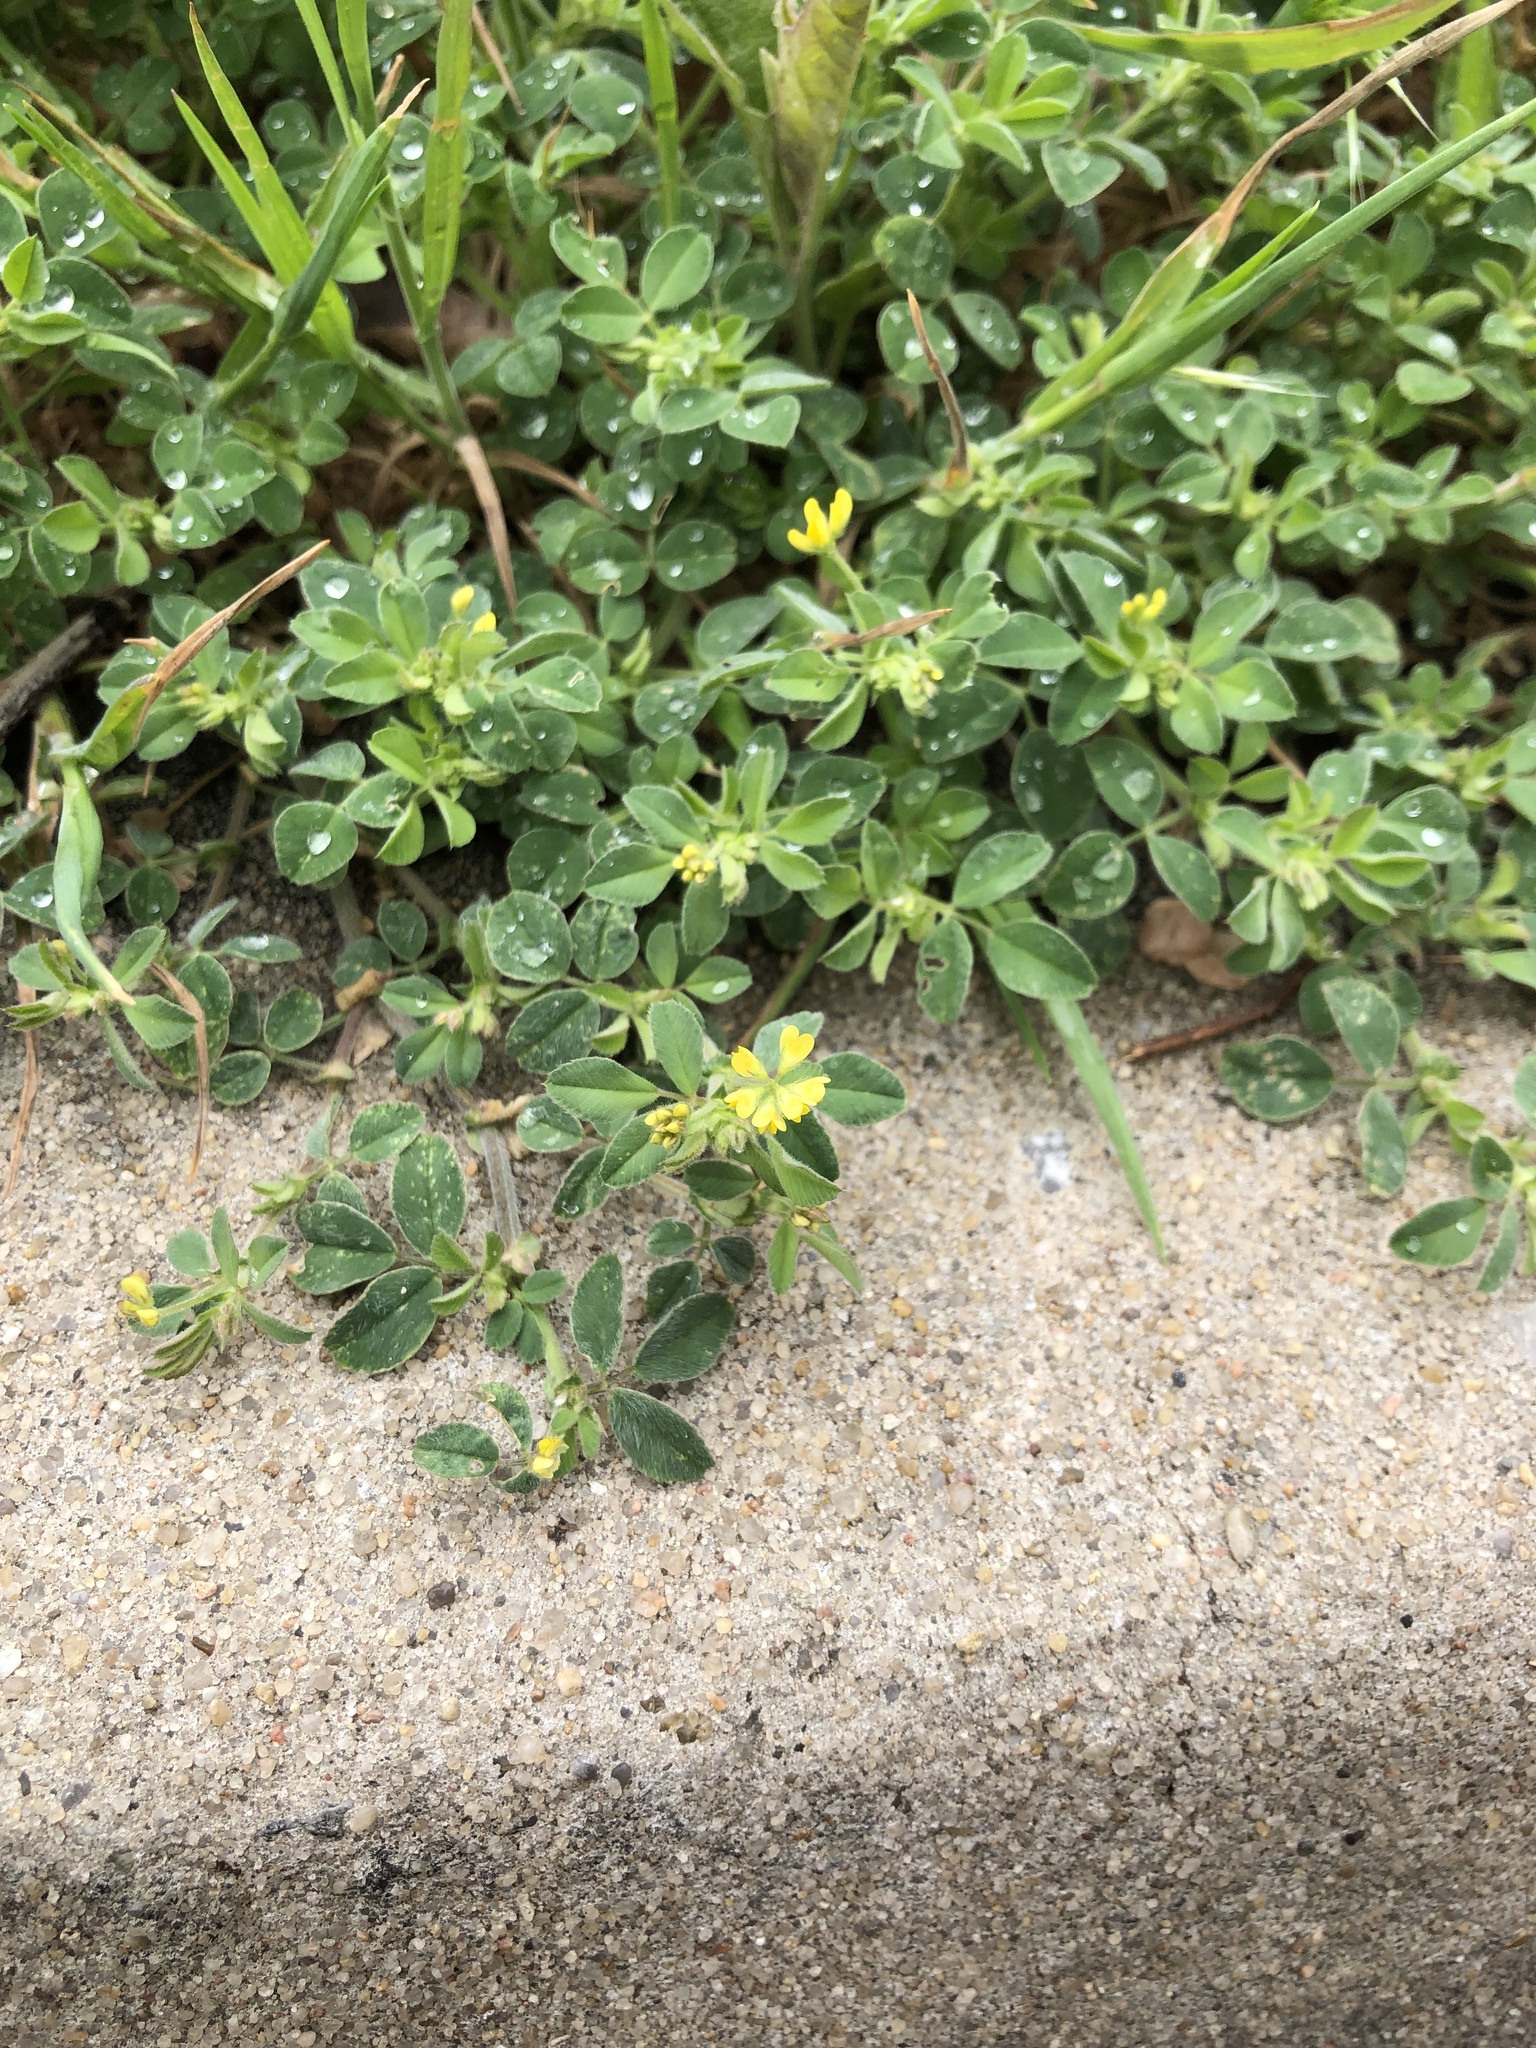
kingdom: Plantae
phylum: Tracheophyta
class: Magnoliopsida
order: Fabales
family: Fabaceae
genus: Medicago
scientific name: Medicago minima
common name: Little bur-clover
